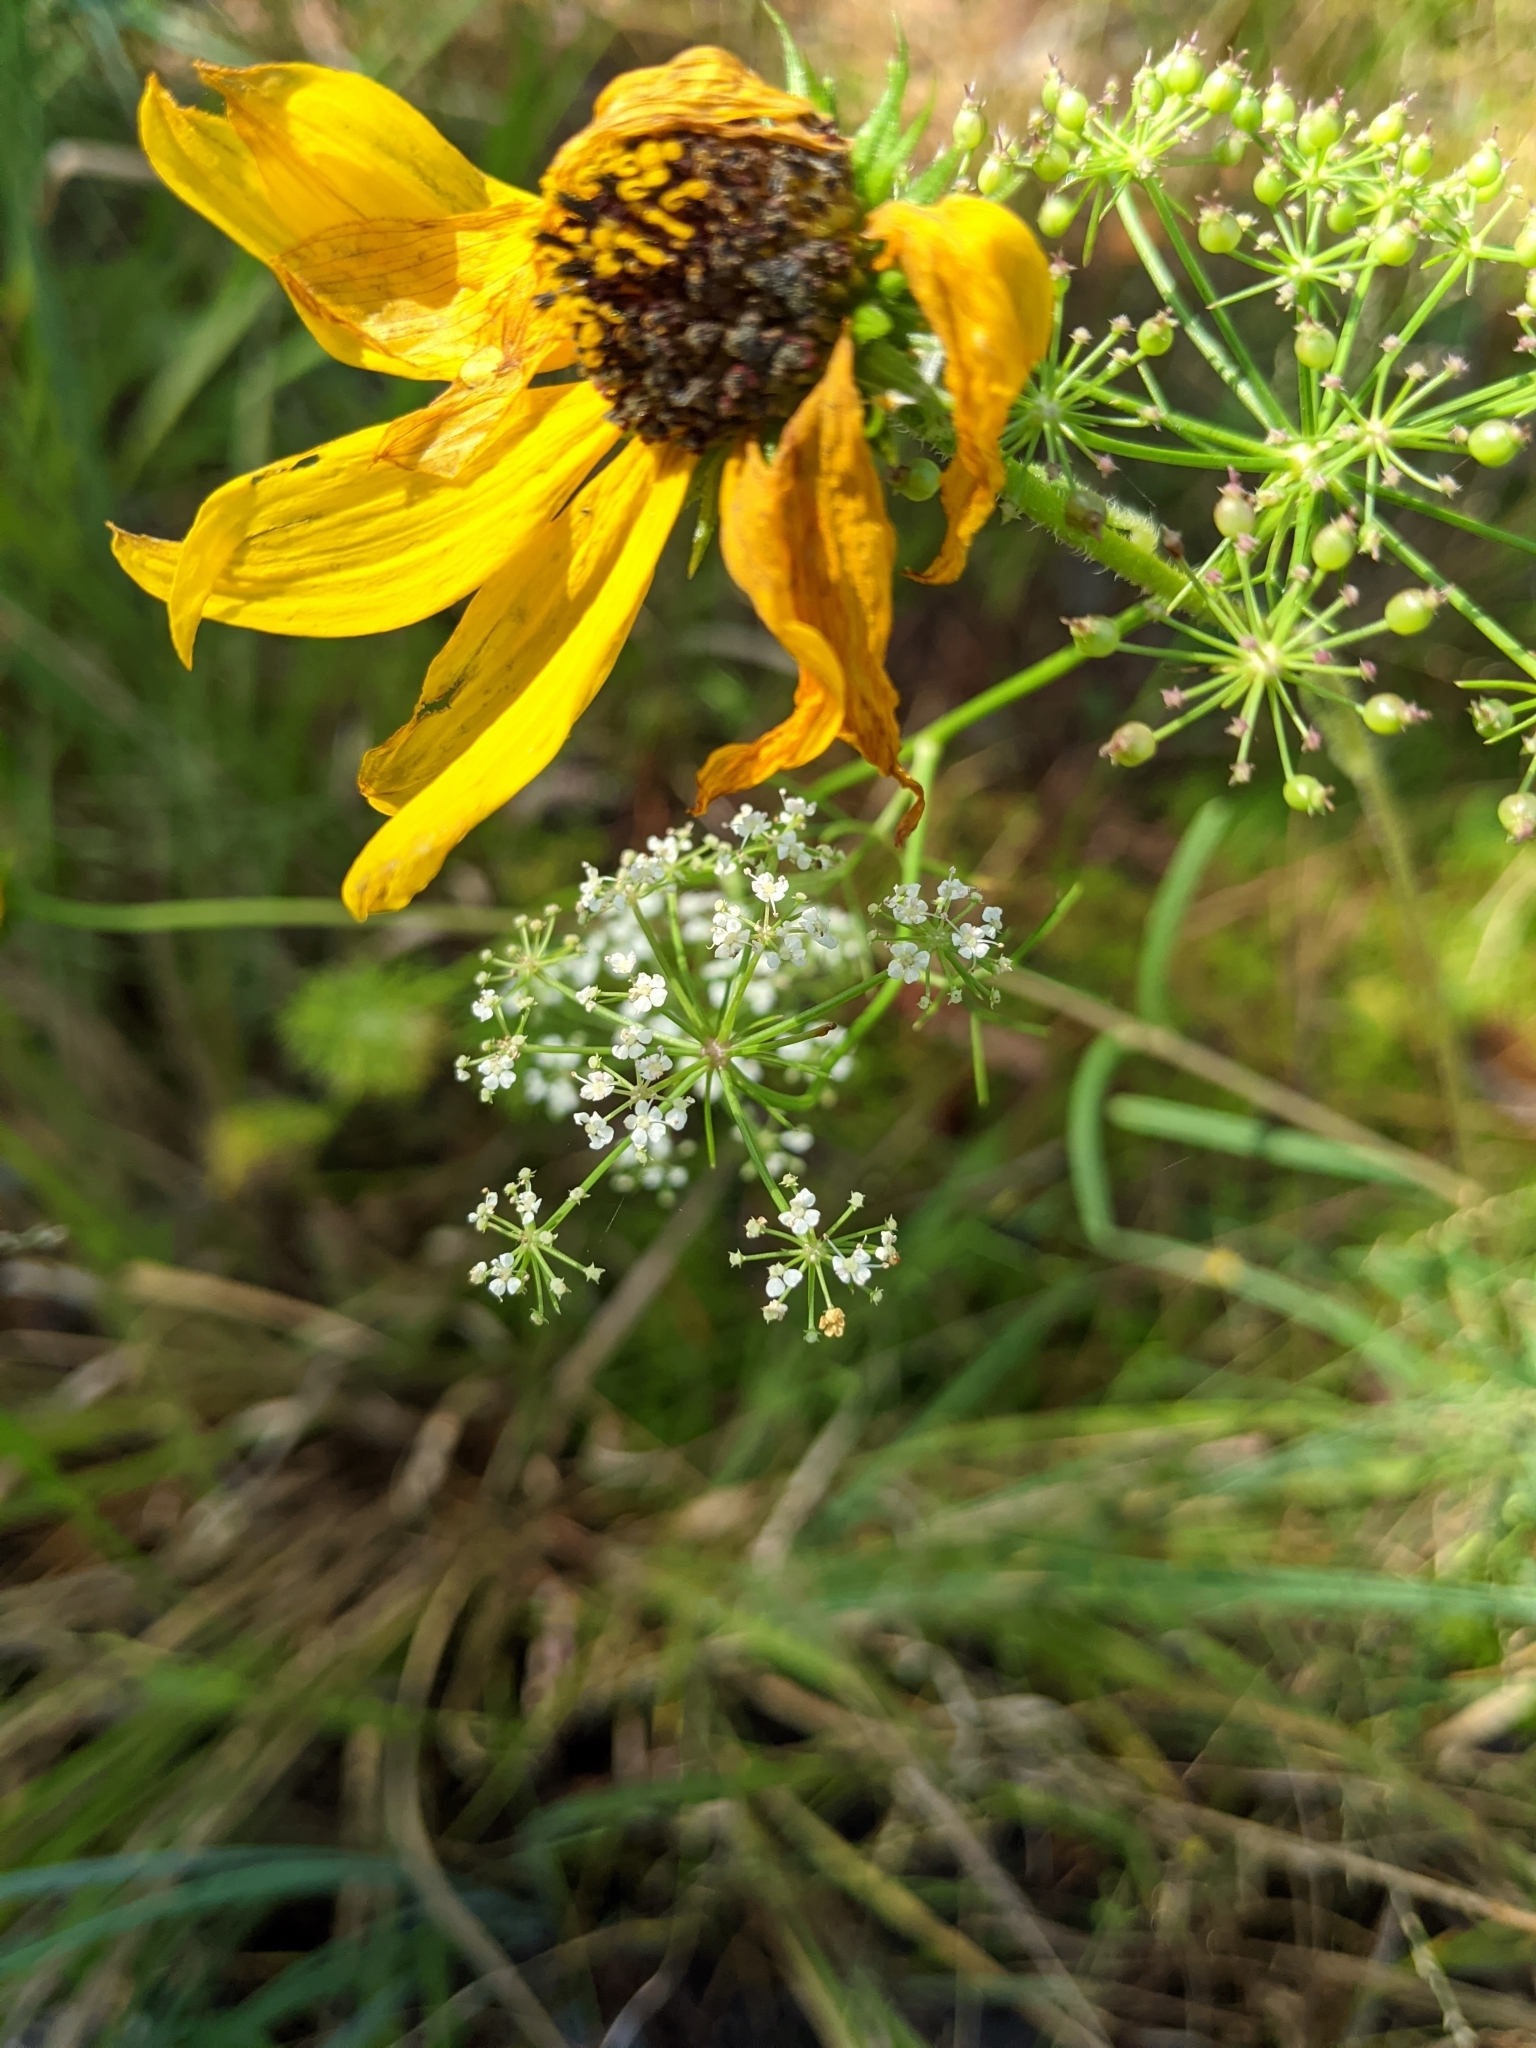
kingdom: Plantae
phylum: Tracheophyta
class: Magnoliopsida
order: Apiales
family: Apiaceae
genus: Ptilimnium
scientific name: Ptilimnium costatum
